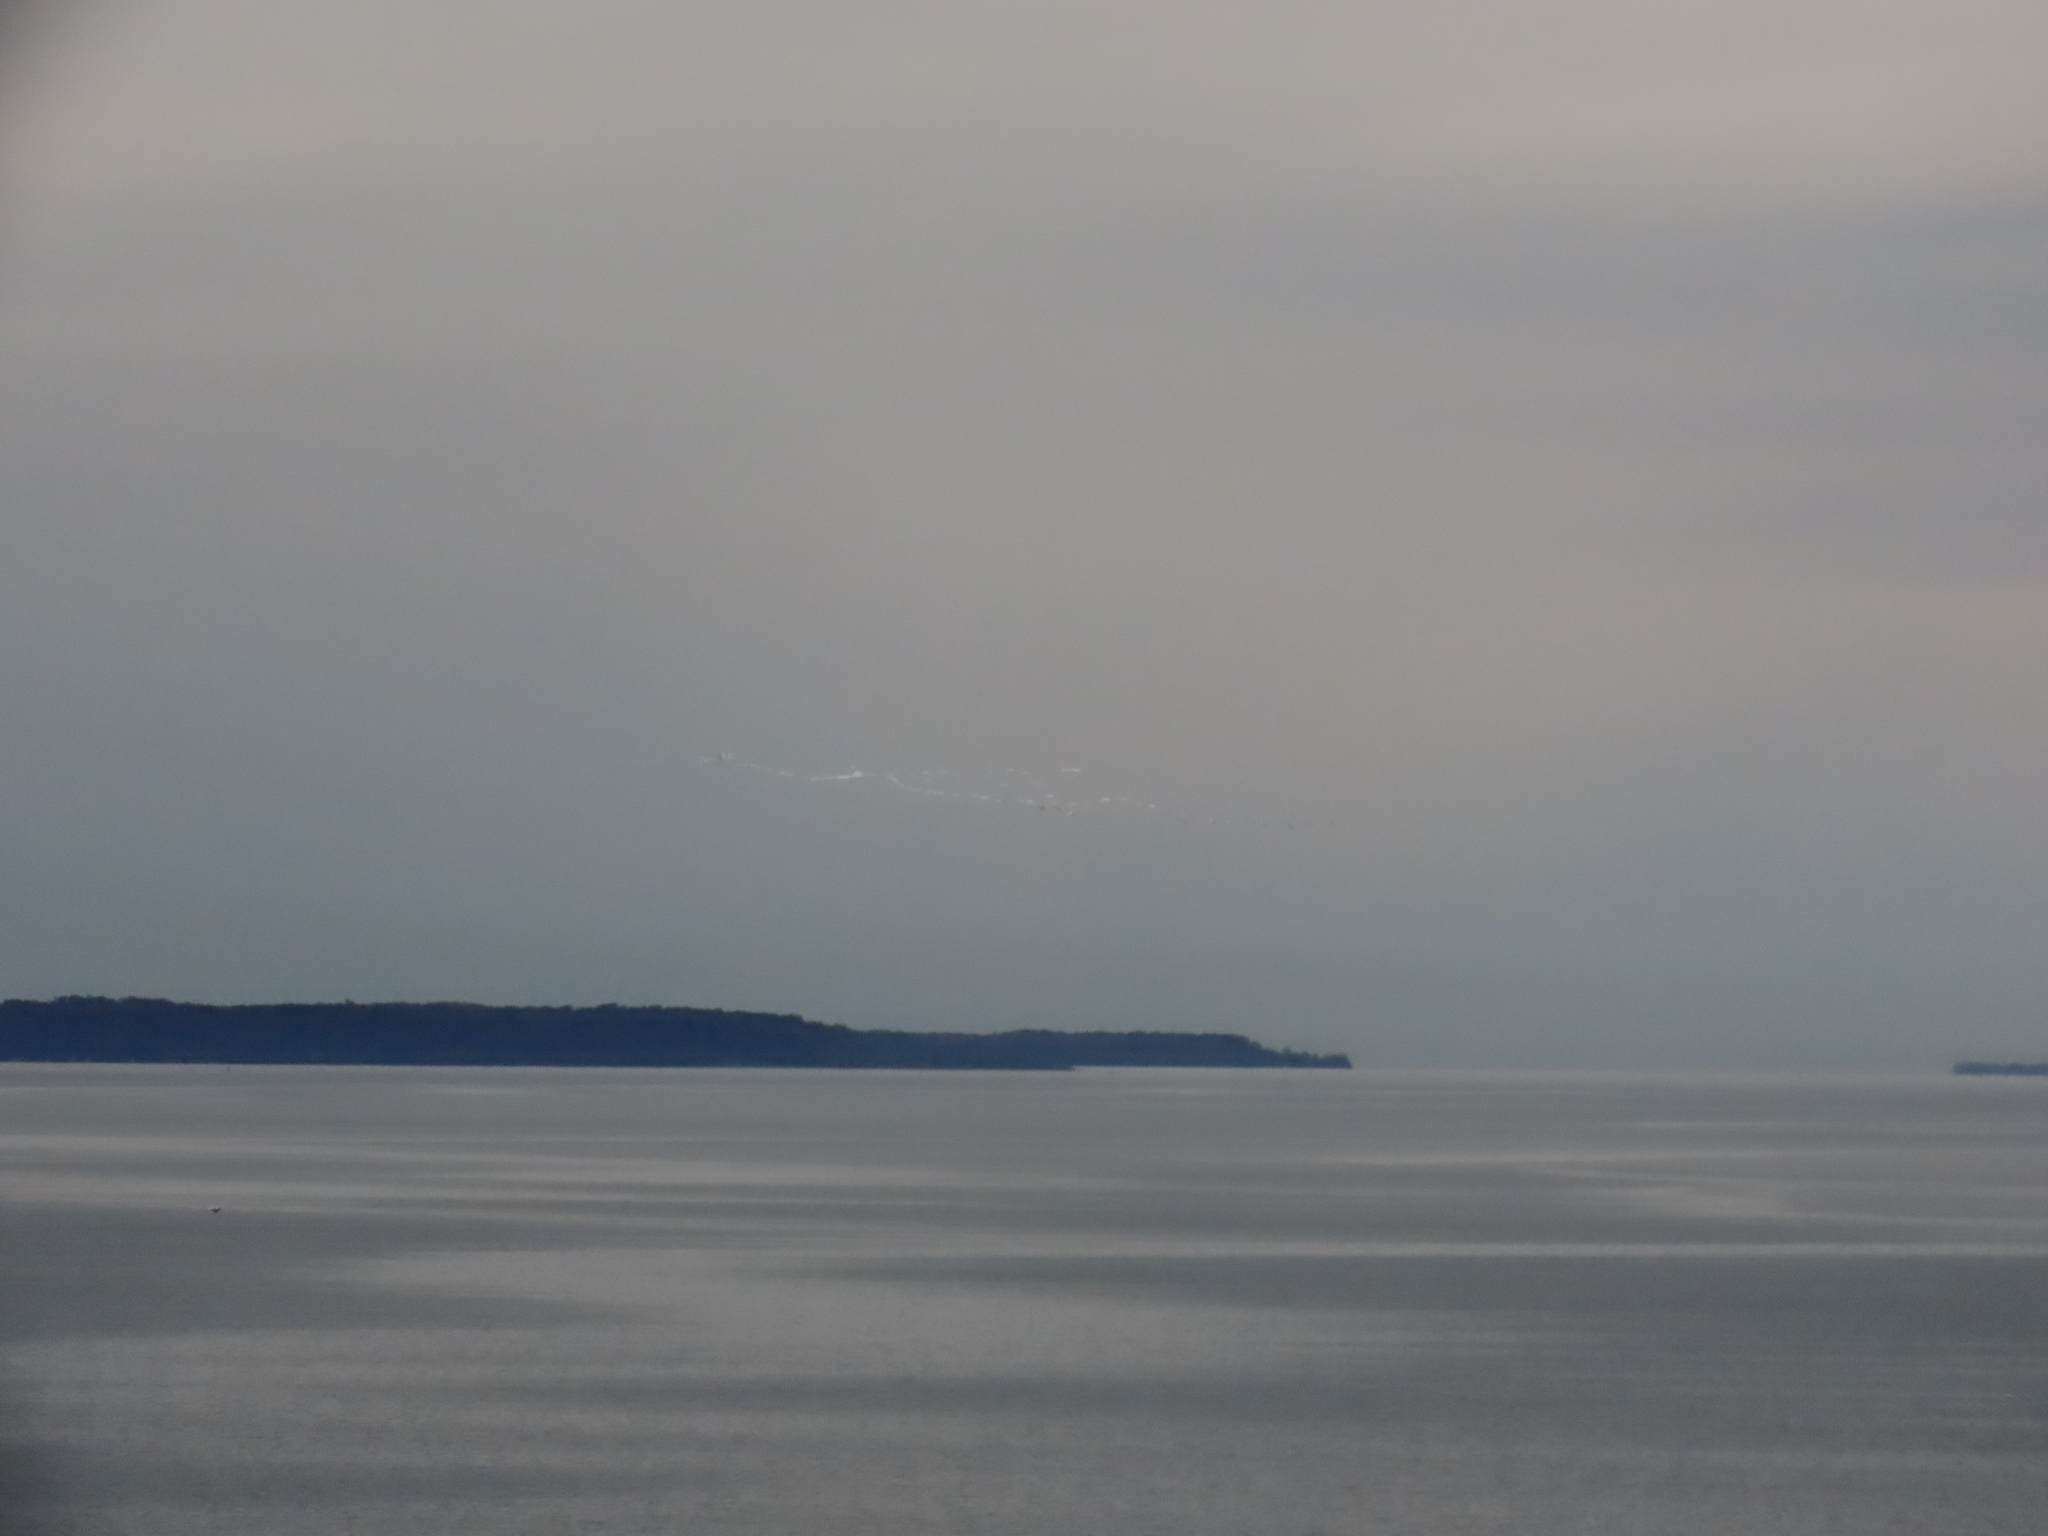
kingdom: Animalia
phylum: Chordata
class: Aves
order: Anseriformes
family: Anatidae
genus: Cygnus
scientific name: Cygnus columbianus
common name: Tundra swan
